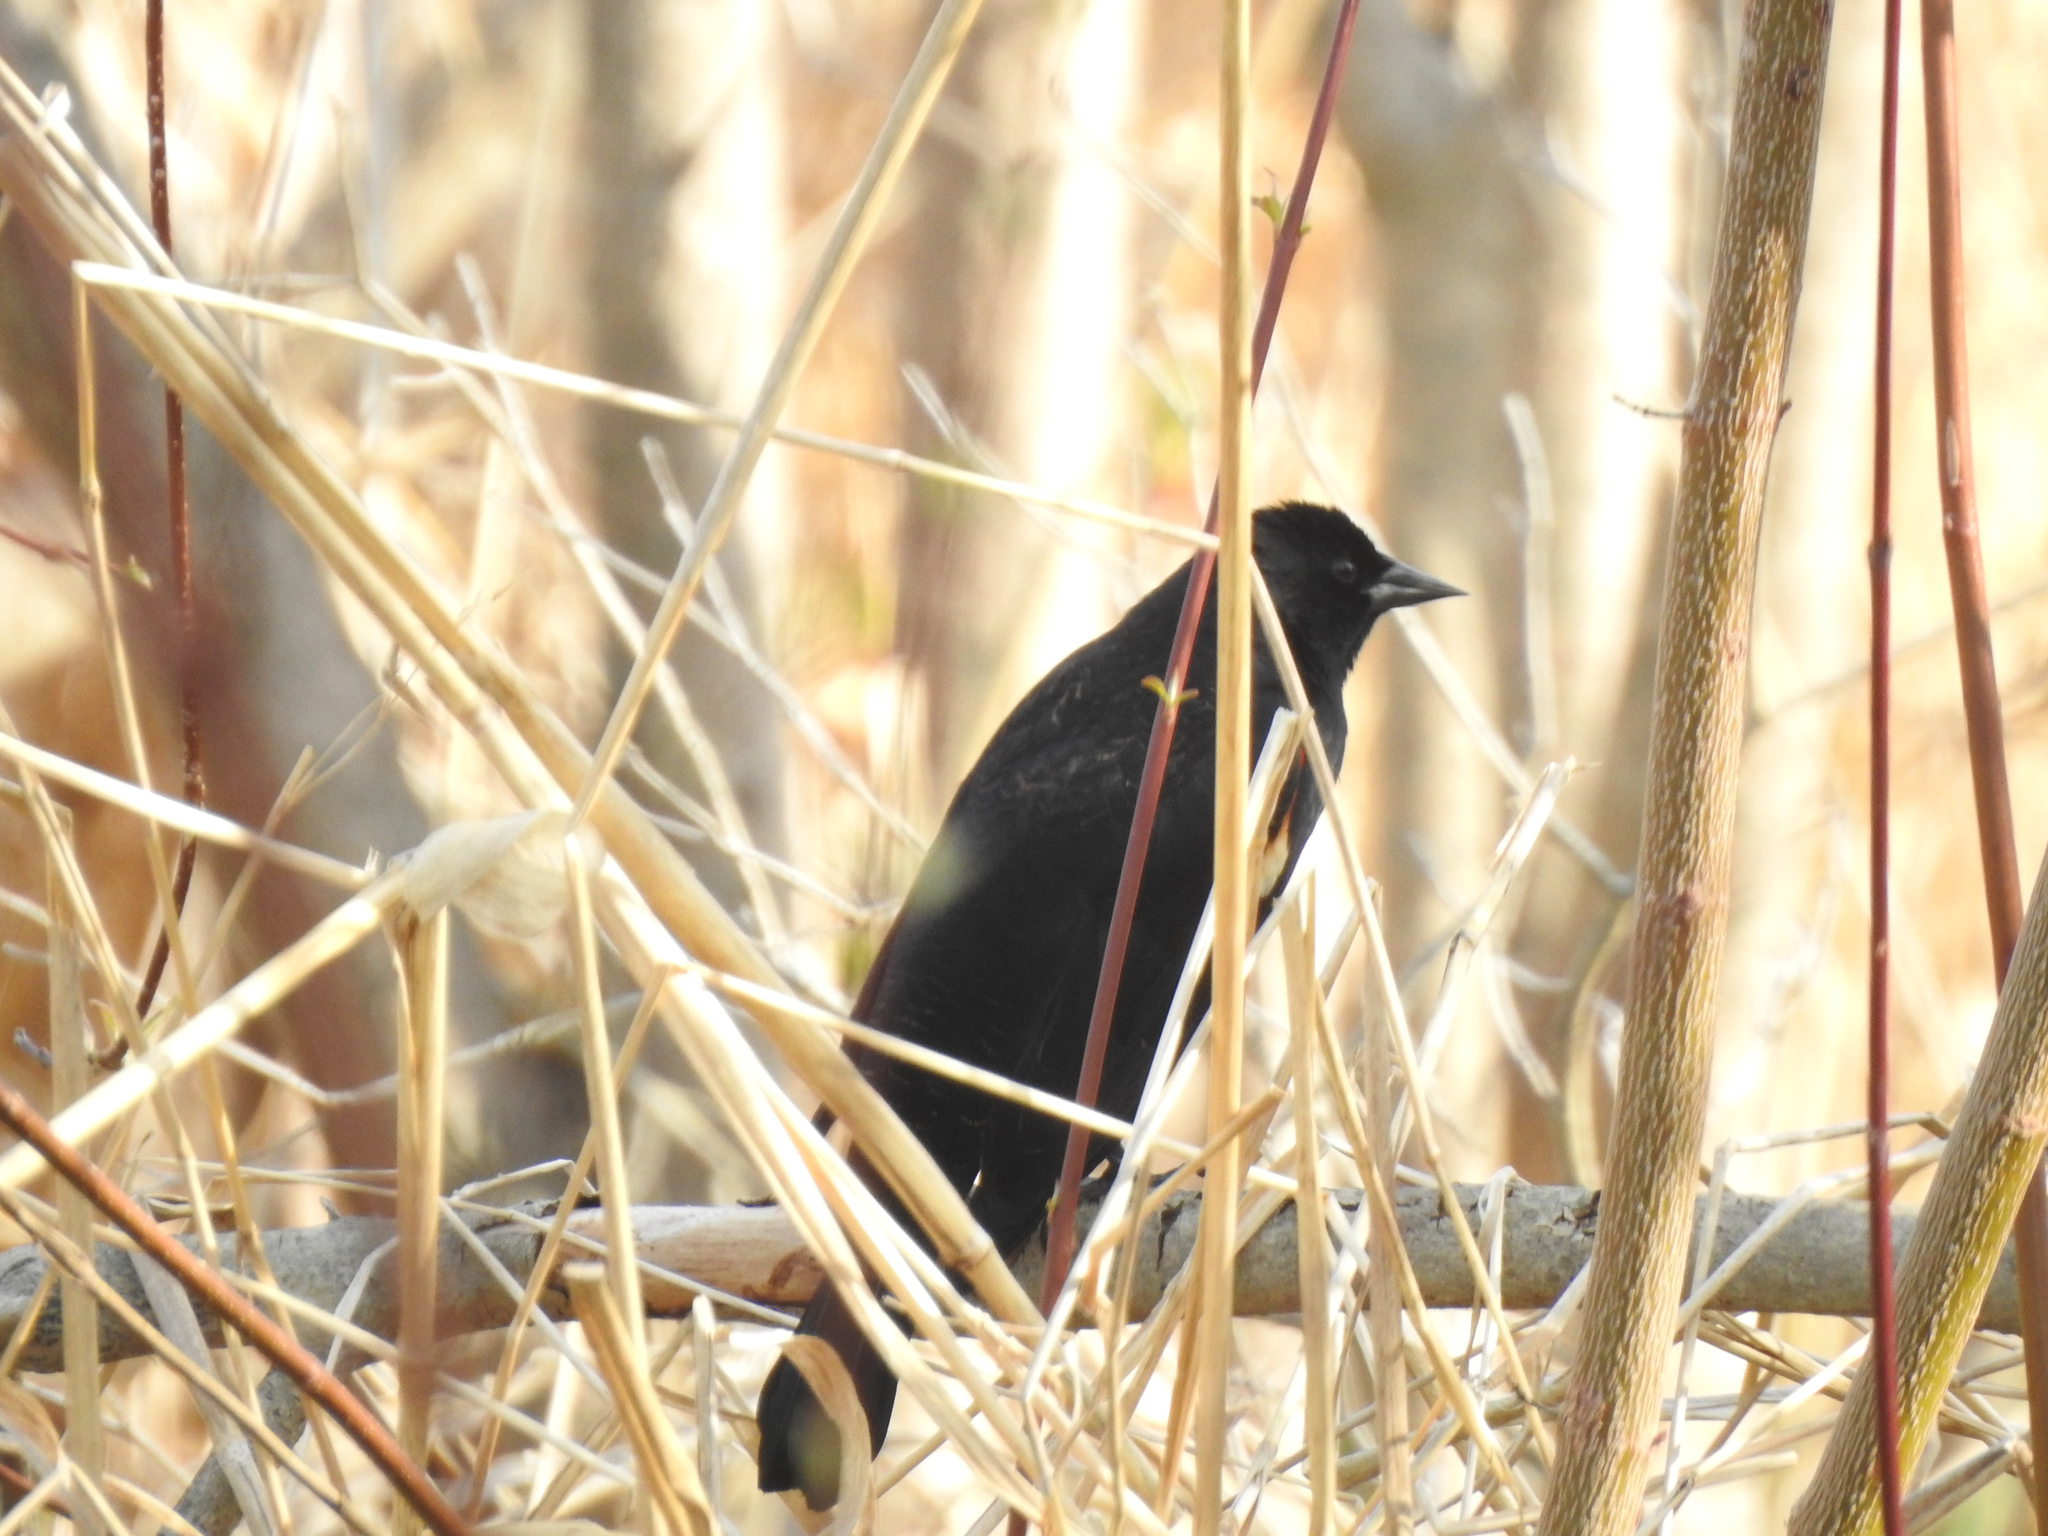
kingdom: Animalia
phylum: Chordata
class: Aves
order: Passeriformes
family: Icteridae
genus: Agelaius
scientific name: Agelaius phoeniceus
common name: Red-winged blackbird
